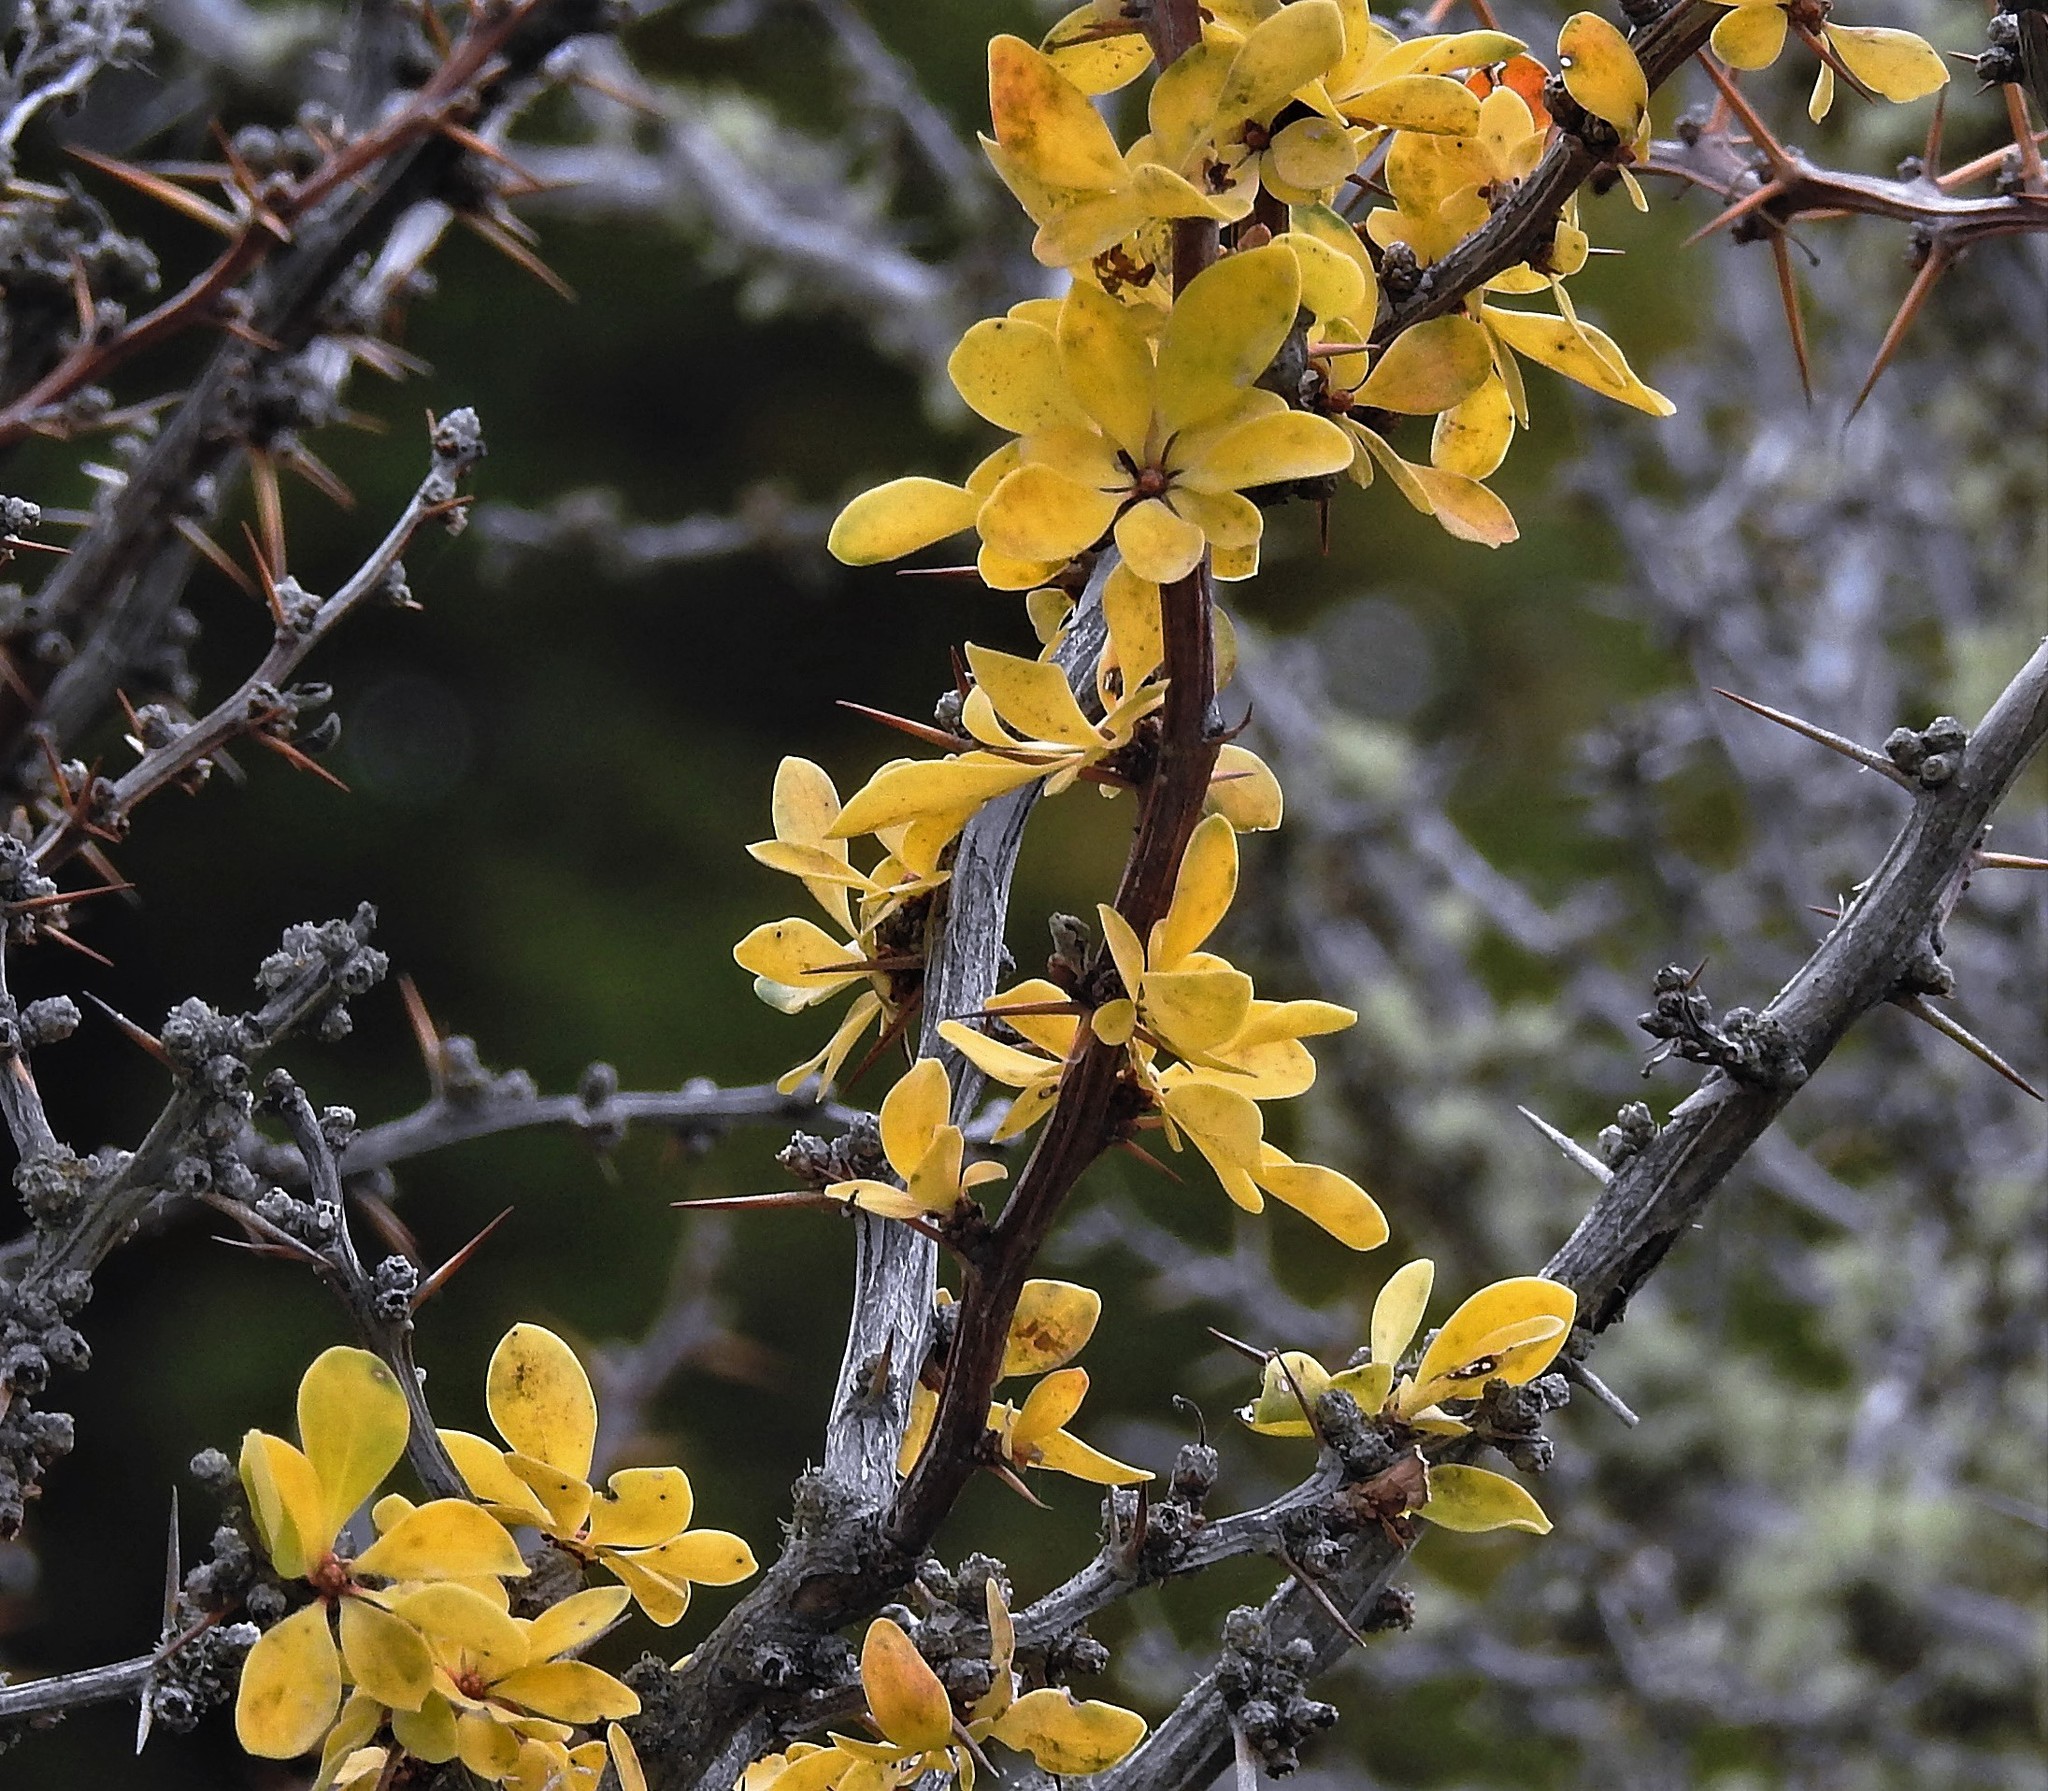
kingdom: Plantae
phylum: Tracheophyta
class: Magnoliopsida
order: Ranunculales
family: Berberidaceae
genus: Berberis
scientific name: Berberis microphylla
